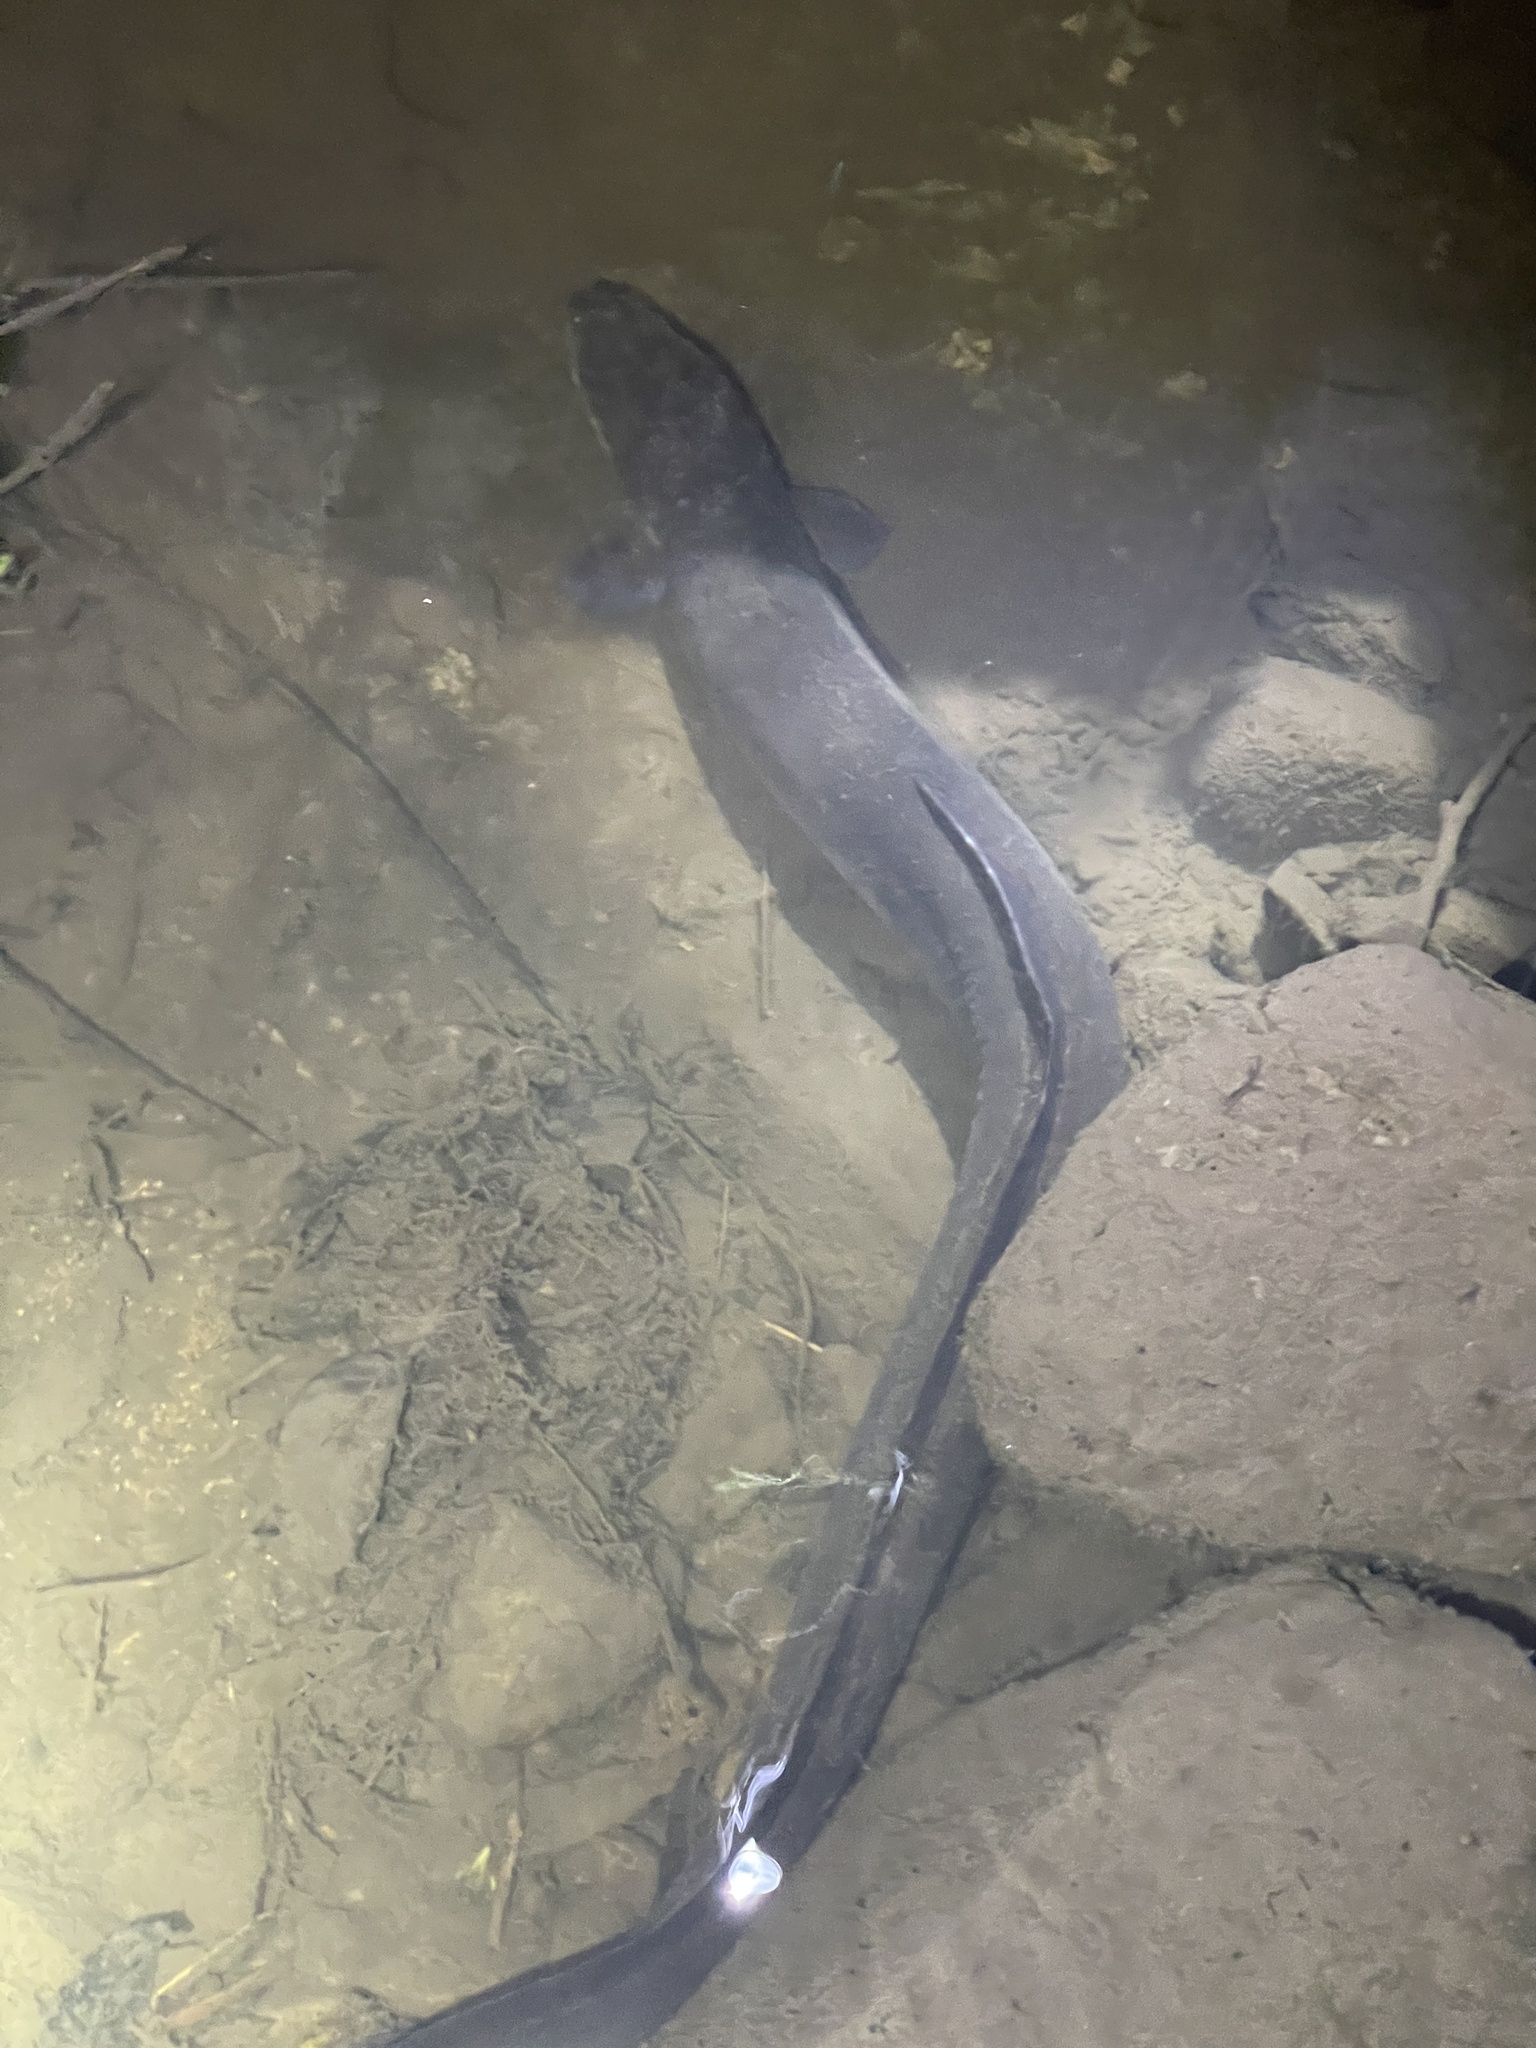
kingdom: Animalia
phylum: Chordata
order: Anguilliformes
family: Anguillidae
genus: Anguilla
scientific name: Anguilla dieffenbachii
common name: New zealand longfin eel
